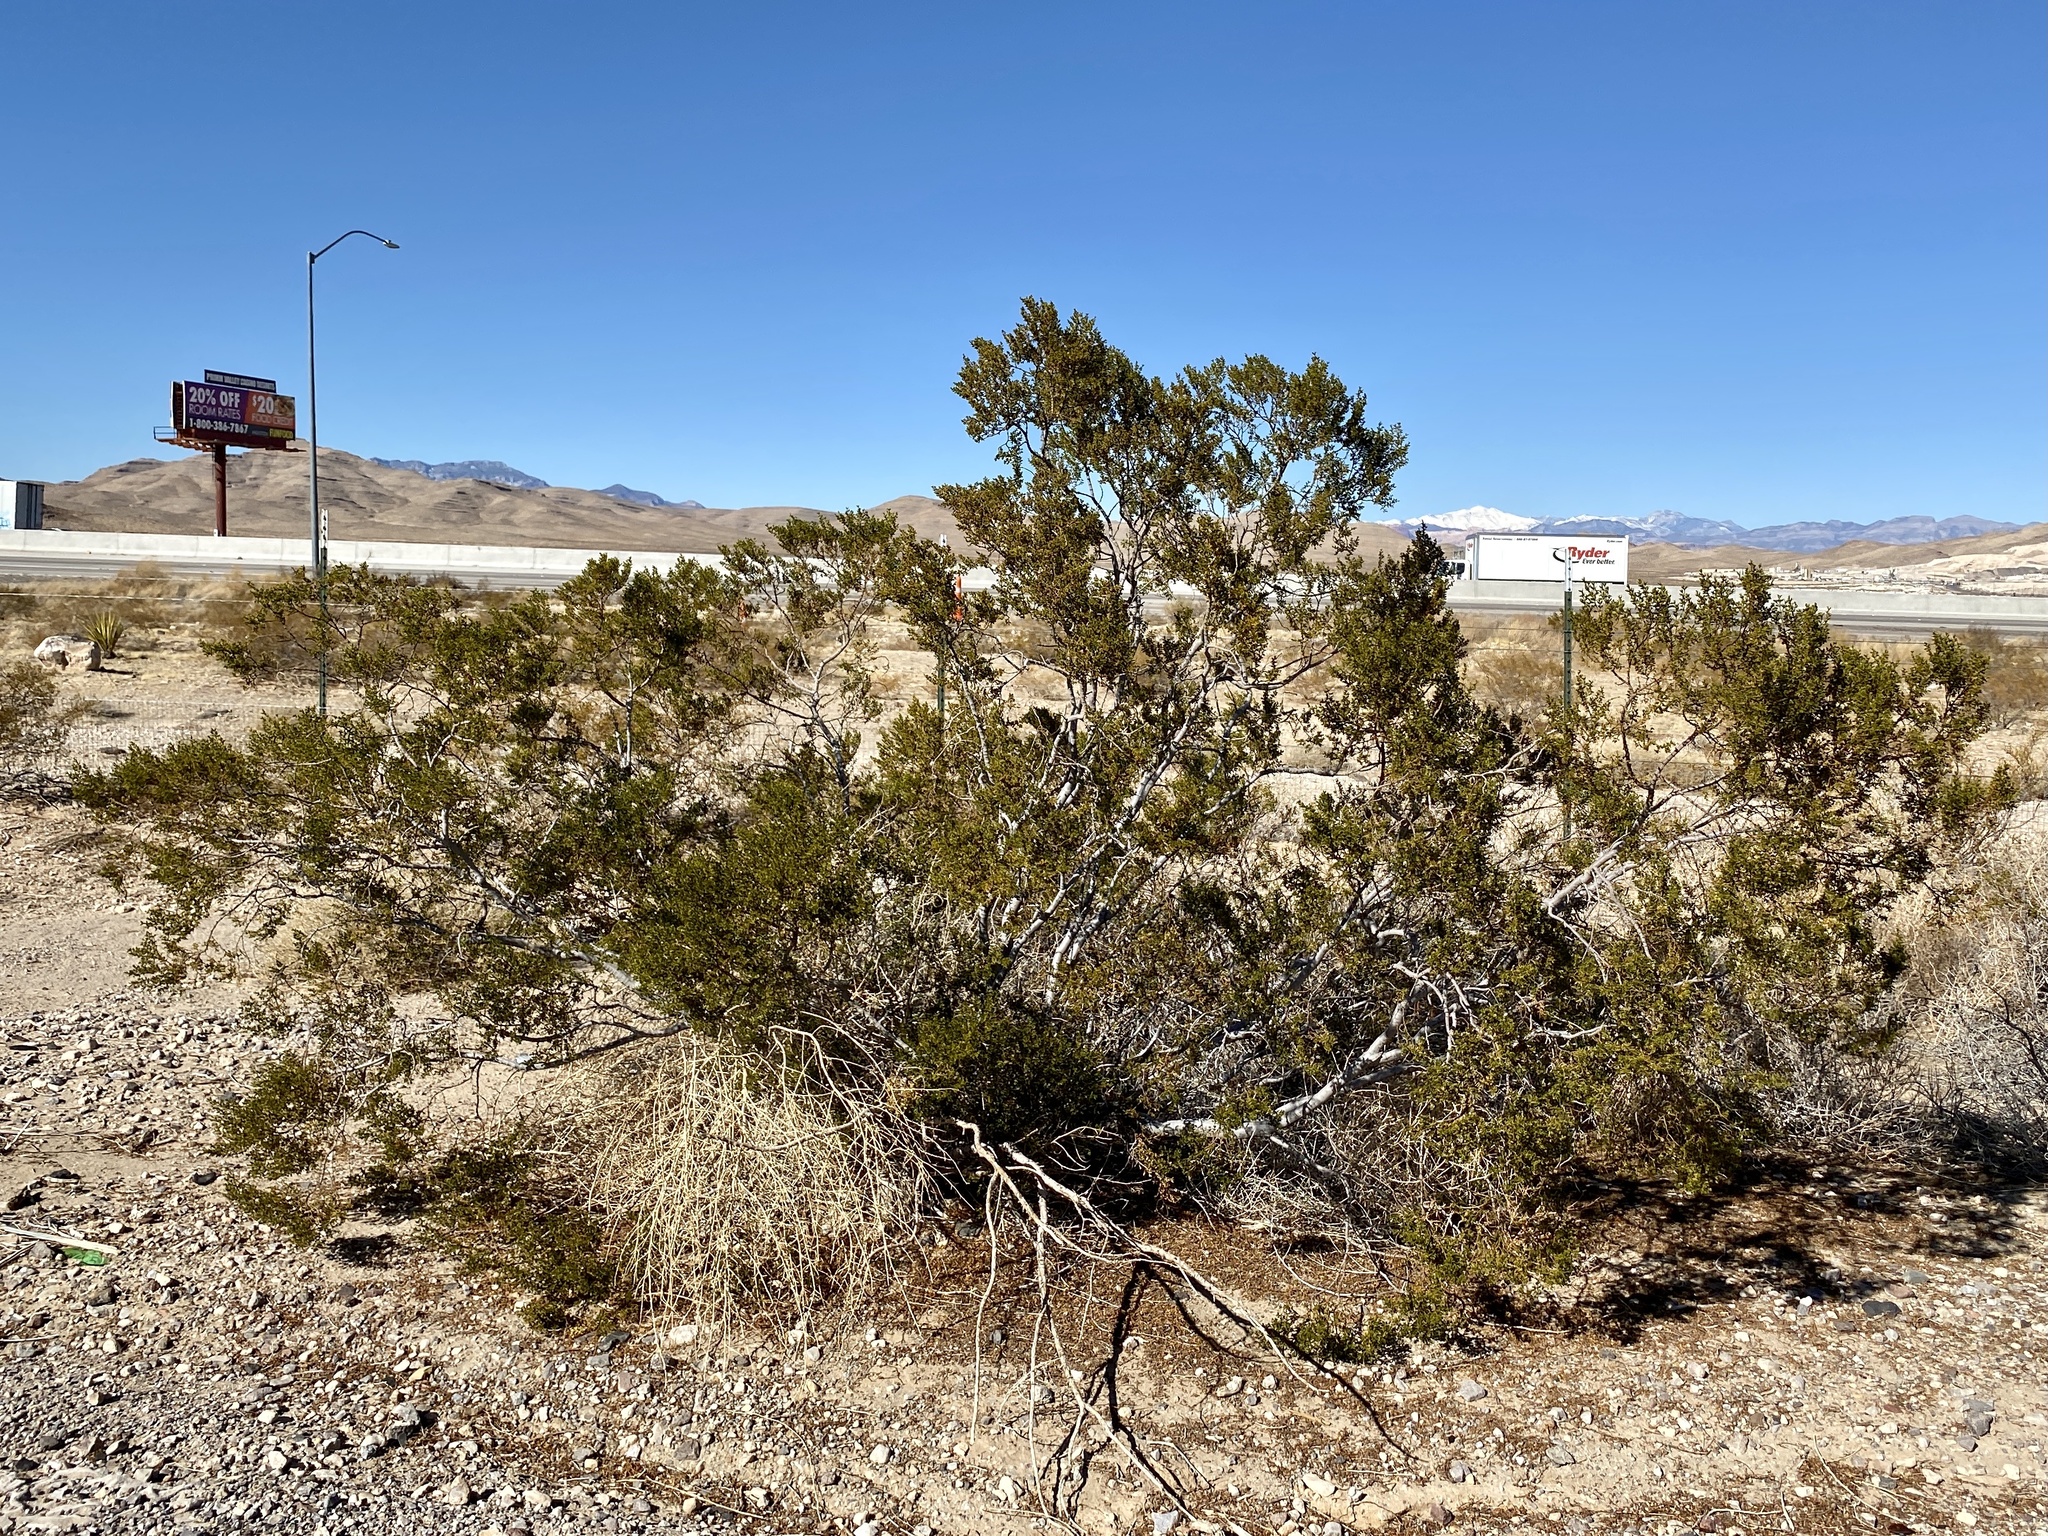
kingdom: Plantae
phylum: Tracheophyta
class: Magnoliopsida
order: Zygophyllales
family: Zygophyllaceae
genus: Larrea
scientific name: Larrea tridentata
